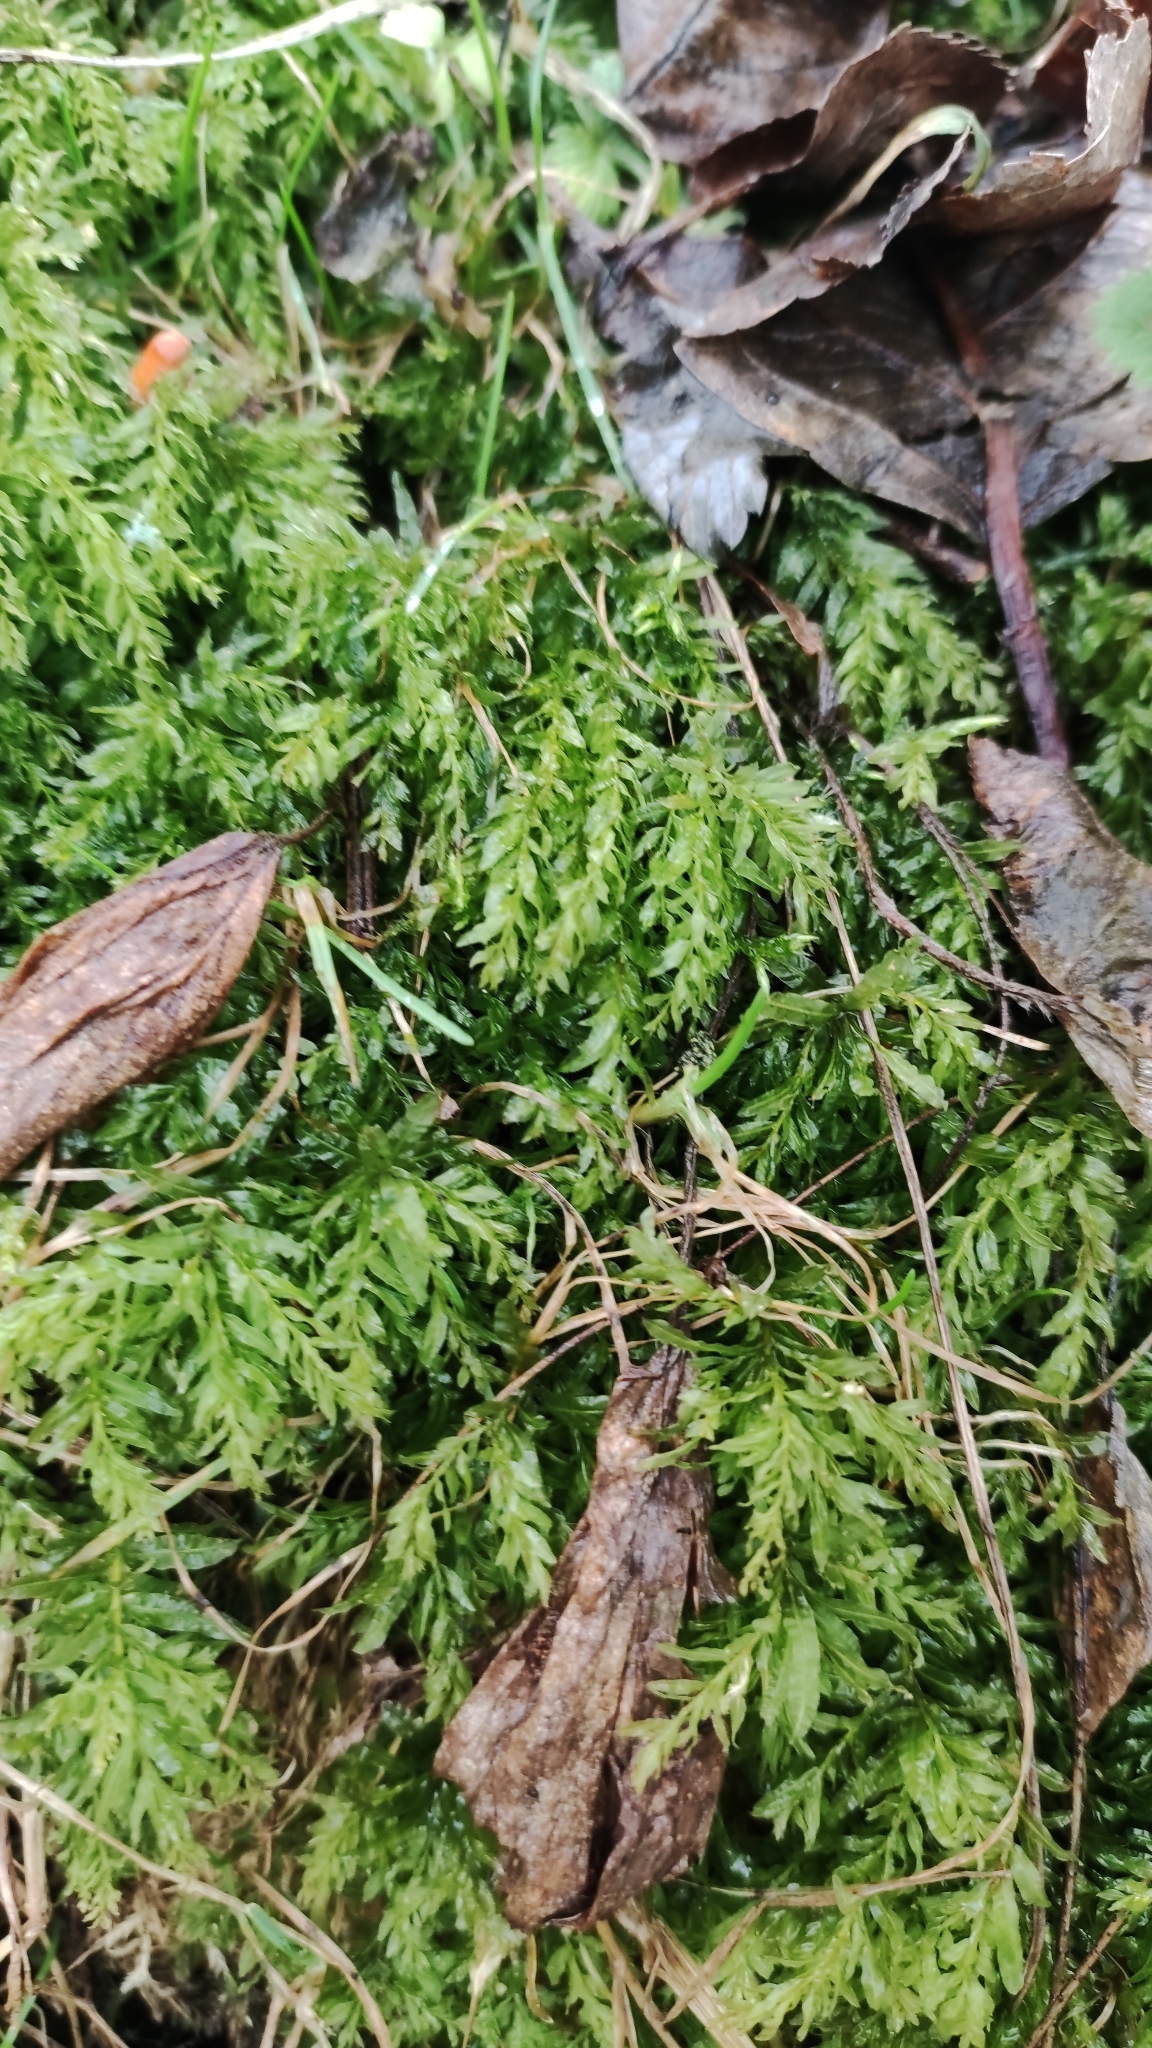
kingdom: Plantae
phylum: Bryophyta
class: Bryopsida
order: Bryales
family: Mniaceae
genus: Plagiomnium
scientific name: Plagiomnium undulatum
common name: Hart's-tongue thyme-moss
